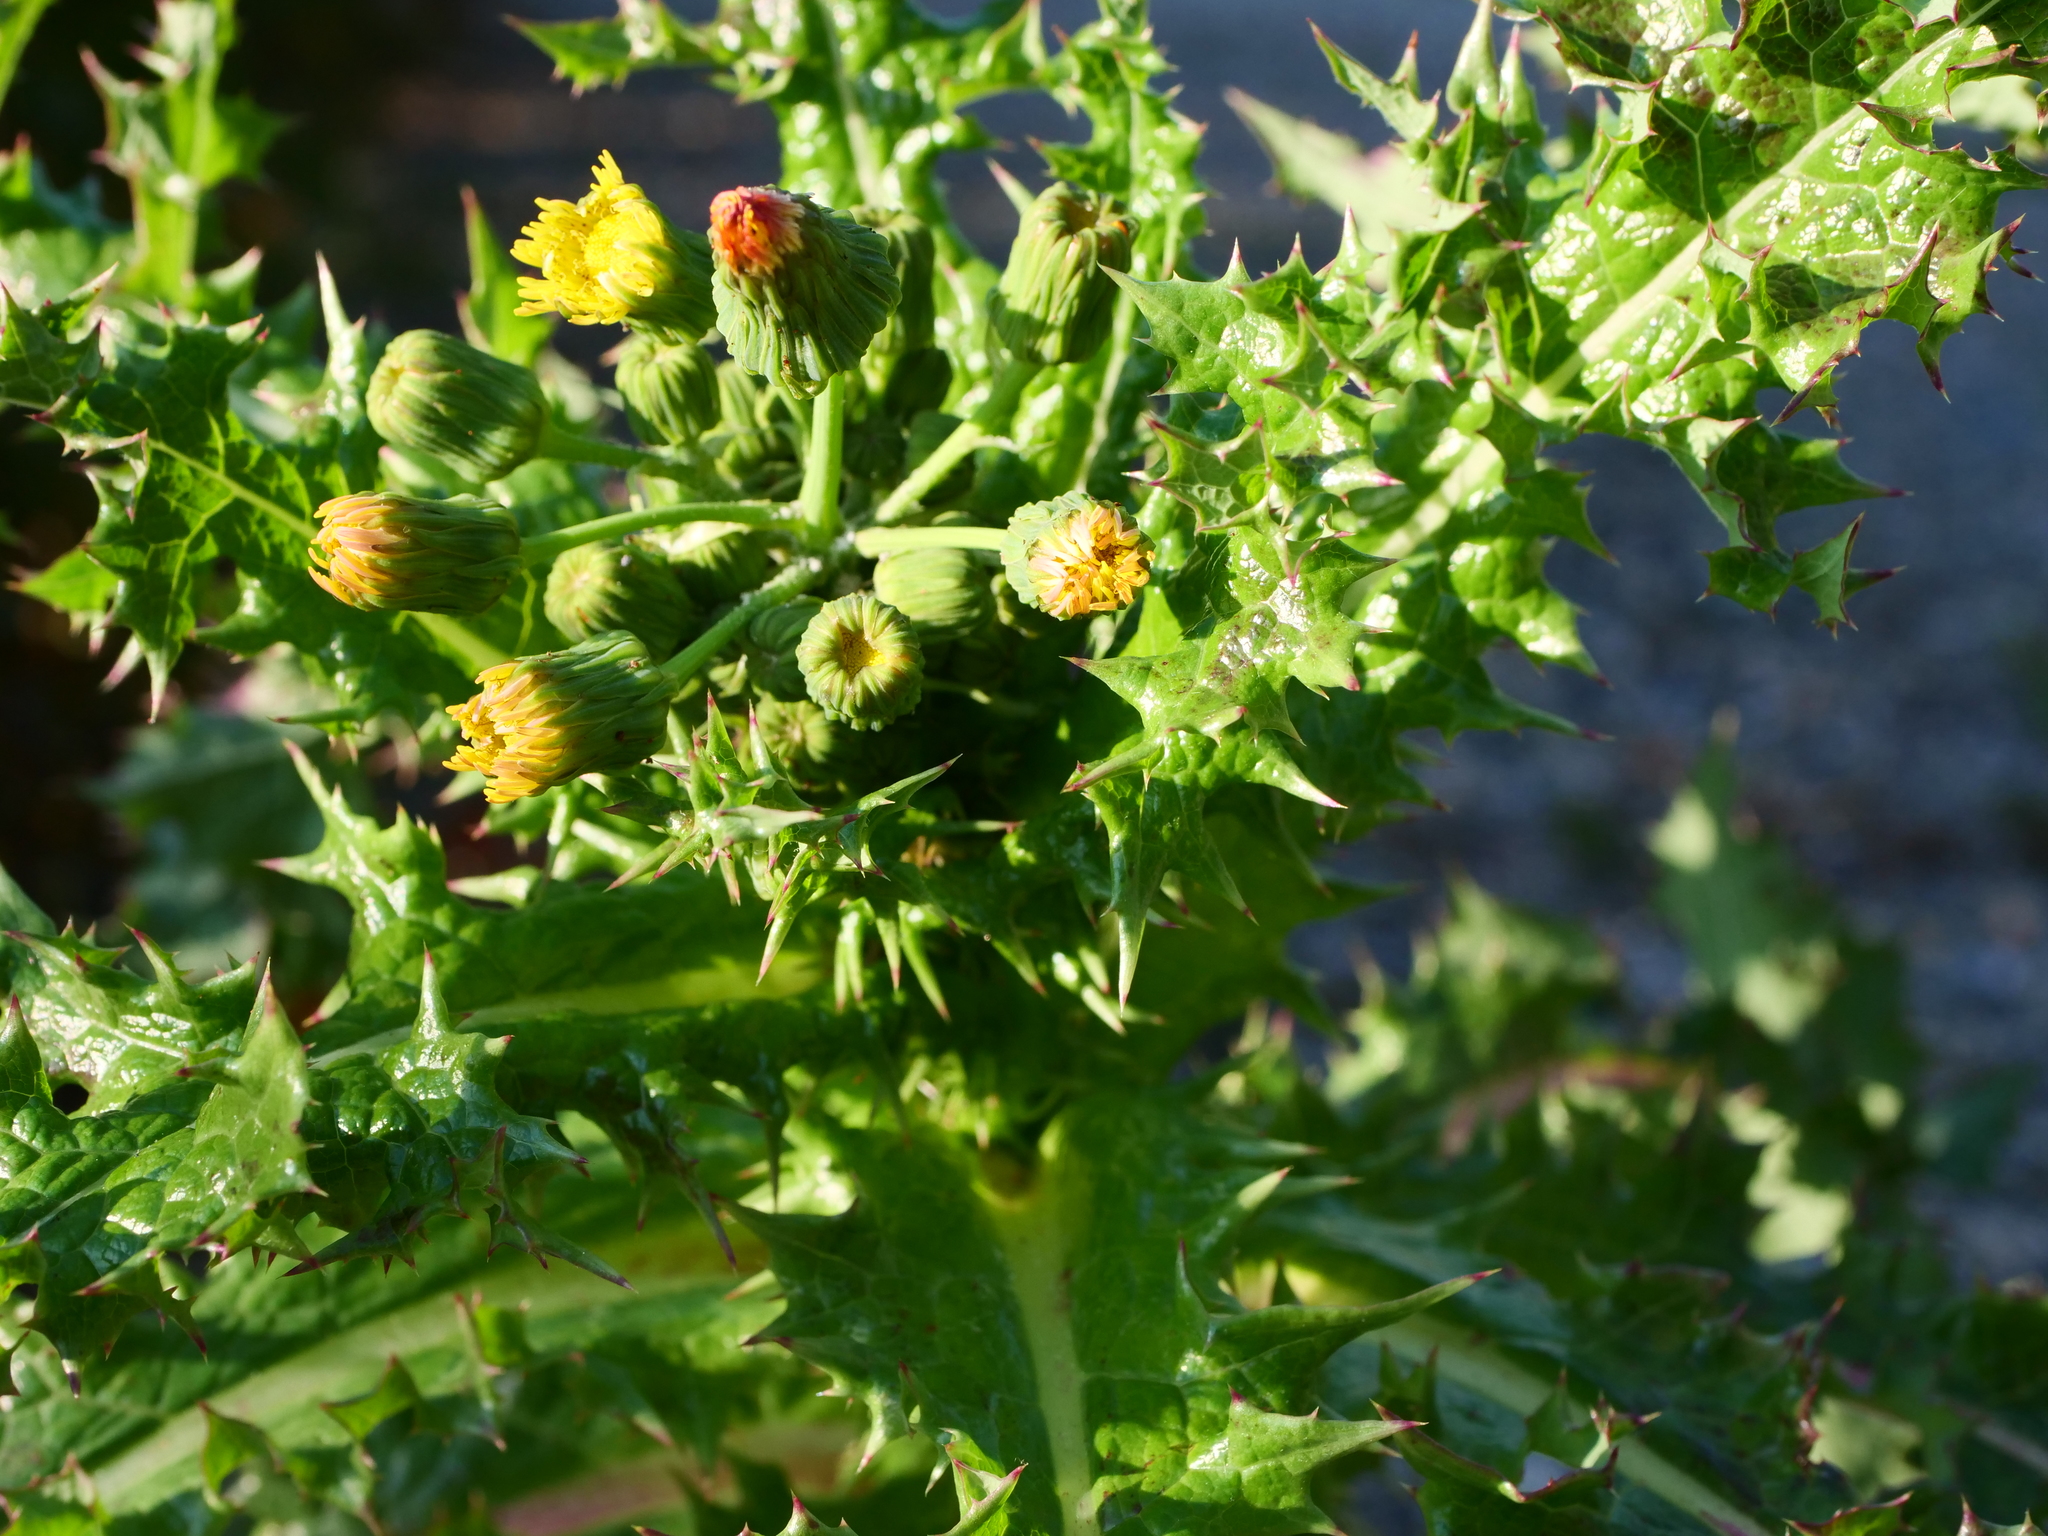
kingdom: Plantae
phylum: Tracheophyta
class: Magnoliopsida
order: Asterales
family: Asteraceae
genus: Sonchus
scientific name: Sonchus asper
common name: Prickly sow-thistle
